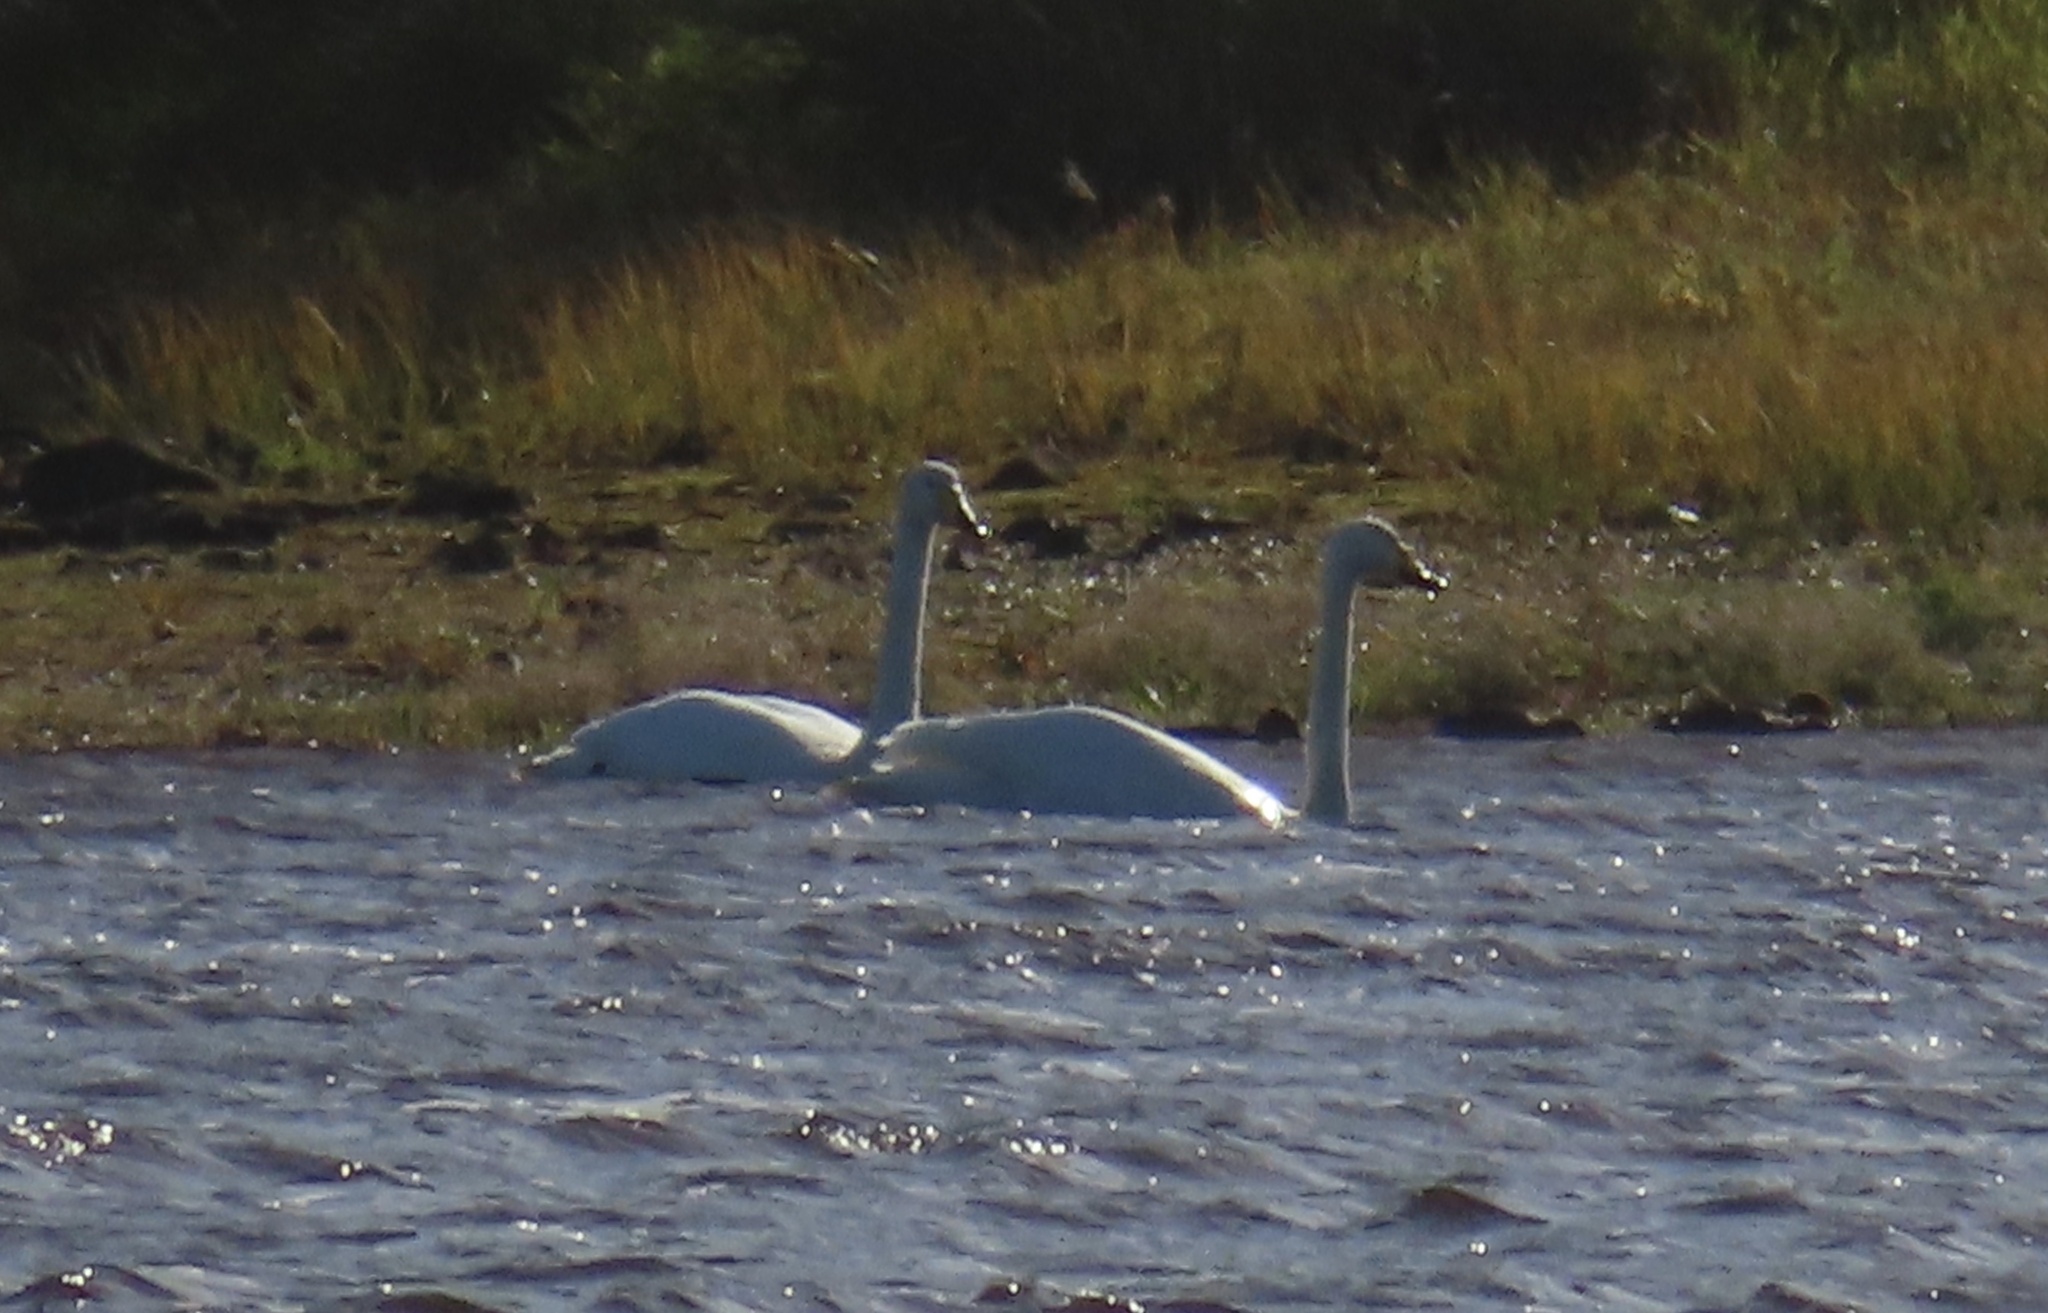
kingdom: Animalia
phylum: Chordata
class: Aves
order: Anseriformes
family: Anatidae
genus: Cygnus
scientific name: Cygnus cygnus
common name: Whooper swan
